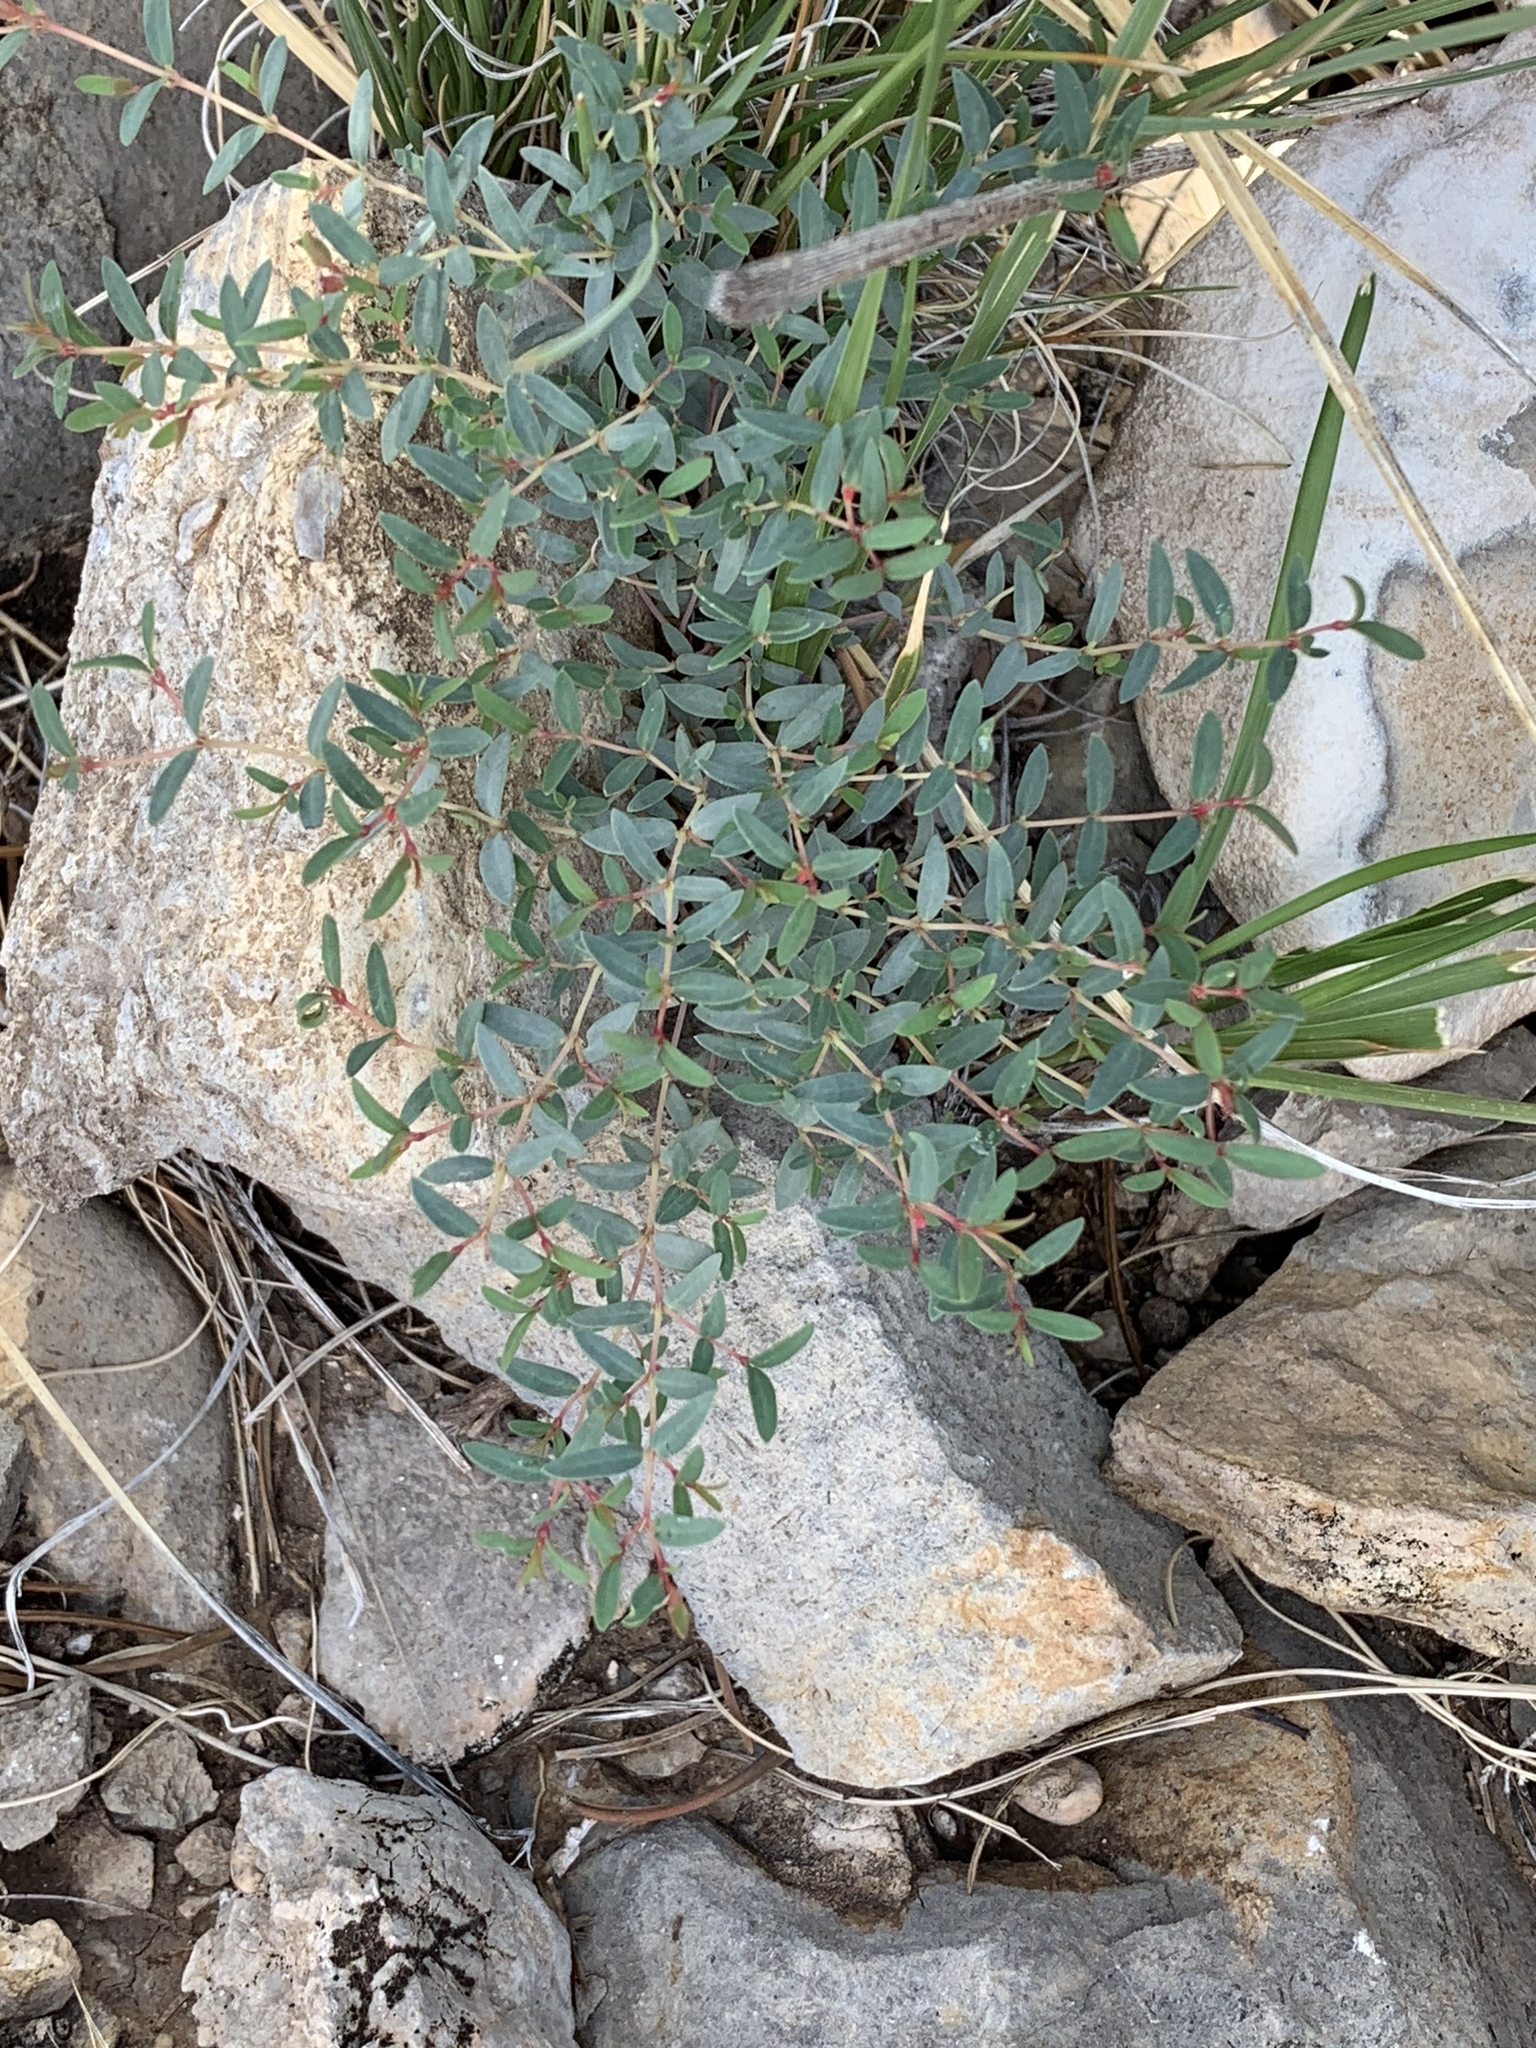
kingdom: Plantae
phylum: Tracheophyta
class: Magnoliopsida
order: Malpighiales
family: Euphorbiaceae
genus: Euphorbia
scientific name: Euphorbia chaetocalyx
